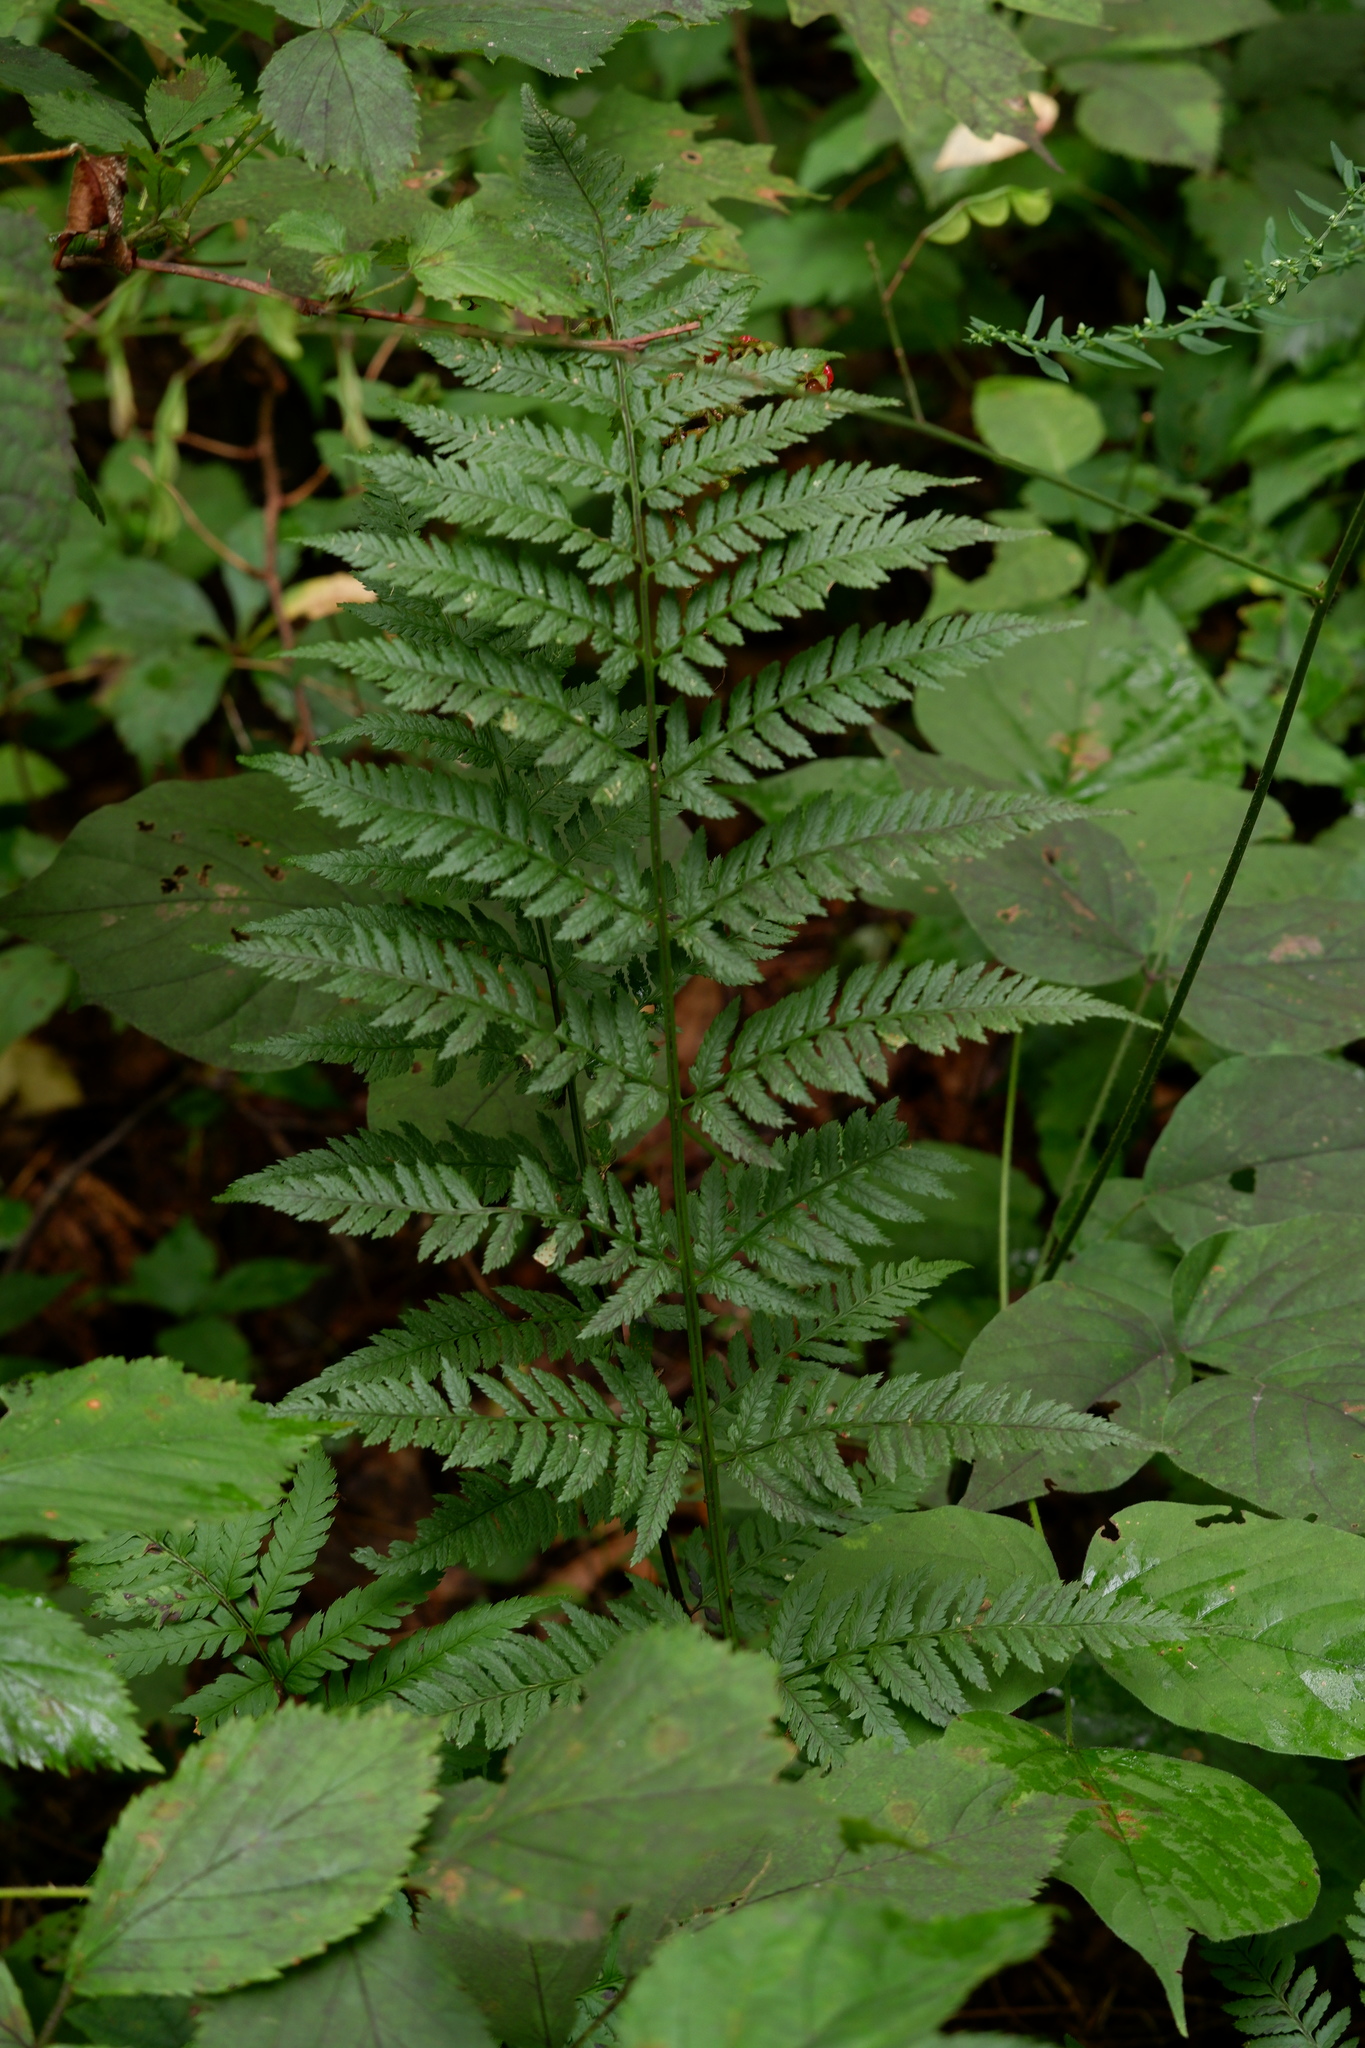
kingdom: Plantae
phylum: Tracheophyta
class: Polypodiopsida
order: Polypodiales
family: Dryopteridaceae
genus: Dryopteris
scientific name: Dryopteris carthusiana
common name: Narrow buckler-fern
